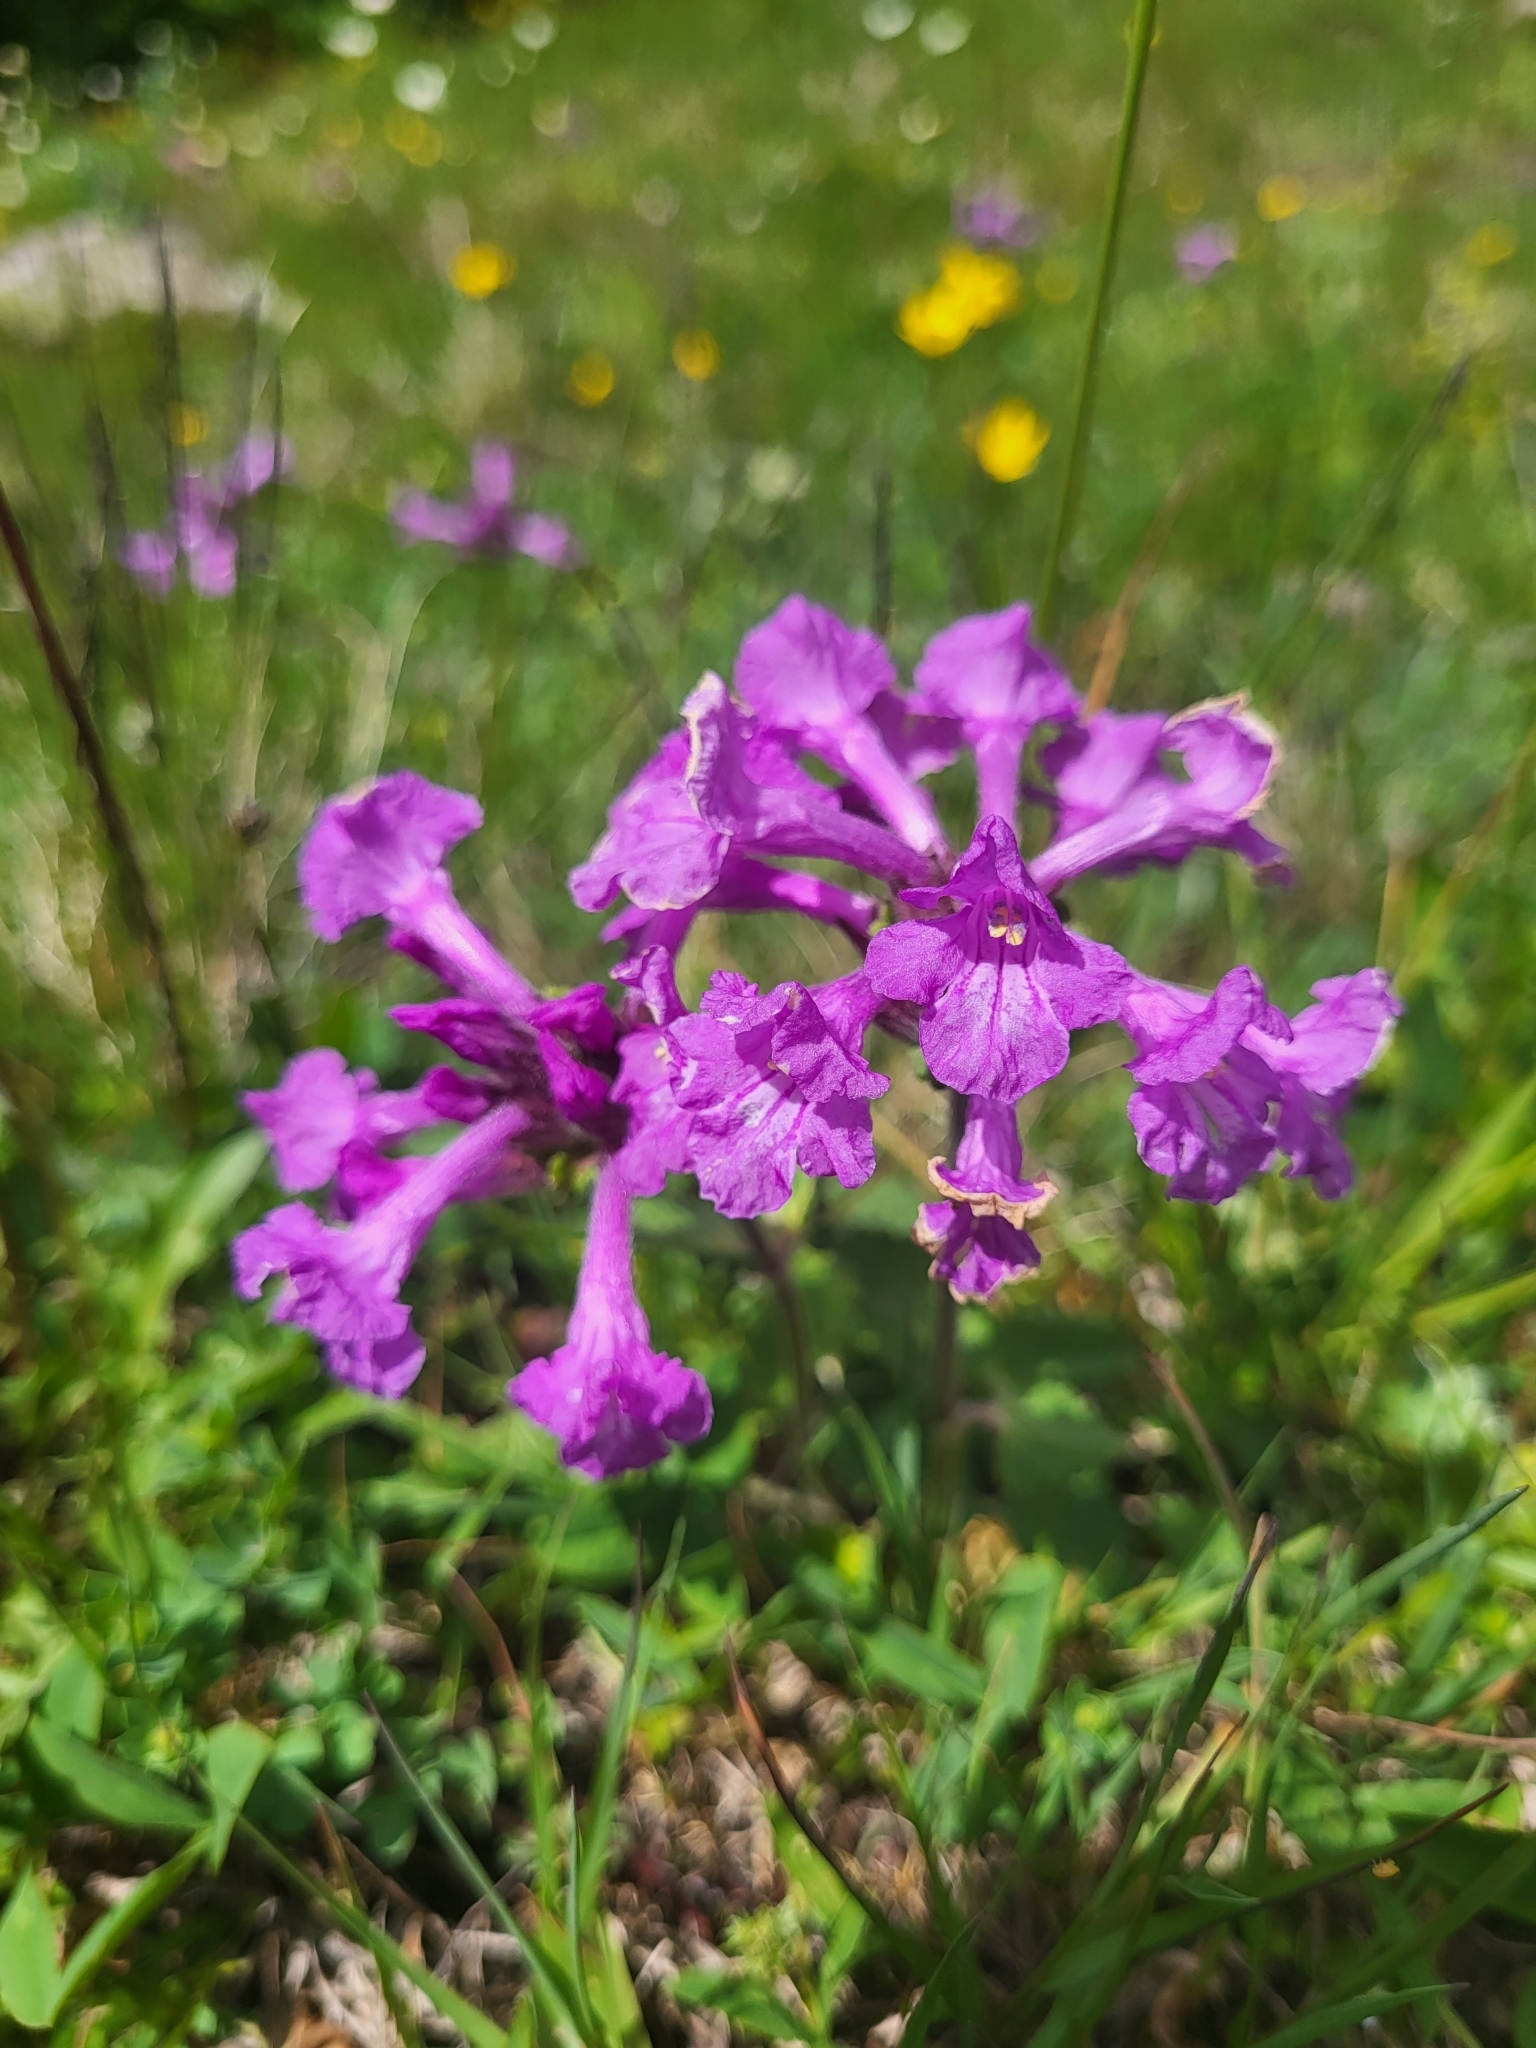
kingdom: Plantae
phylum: Tracheophyta
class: Magnoliopsida
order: Lamiales
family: Lamiaceae
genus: Betonica
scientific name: Betonica macrantha
